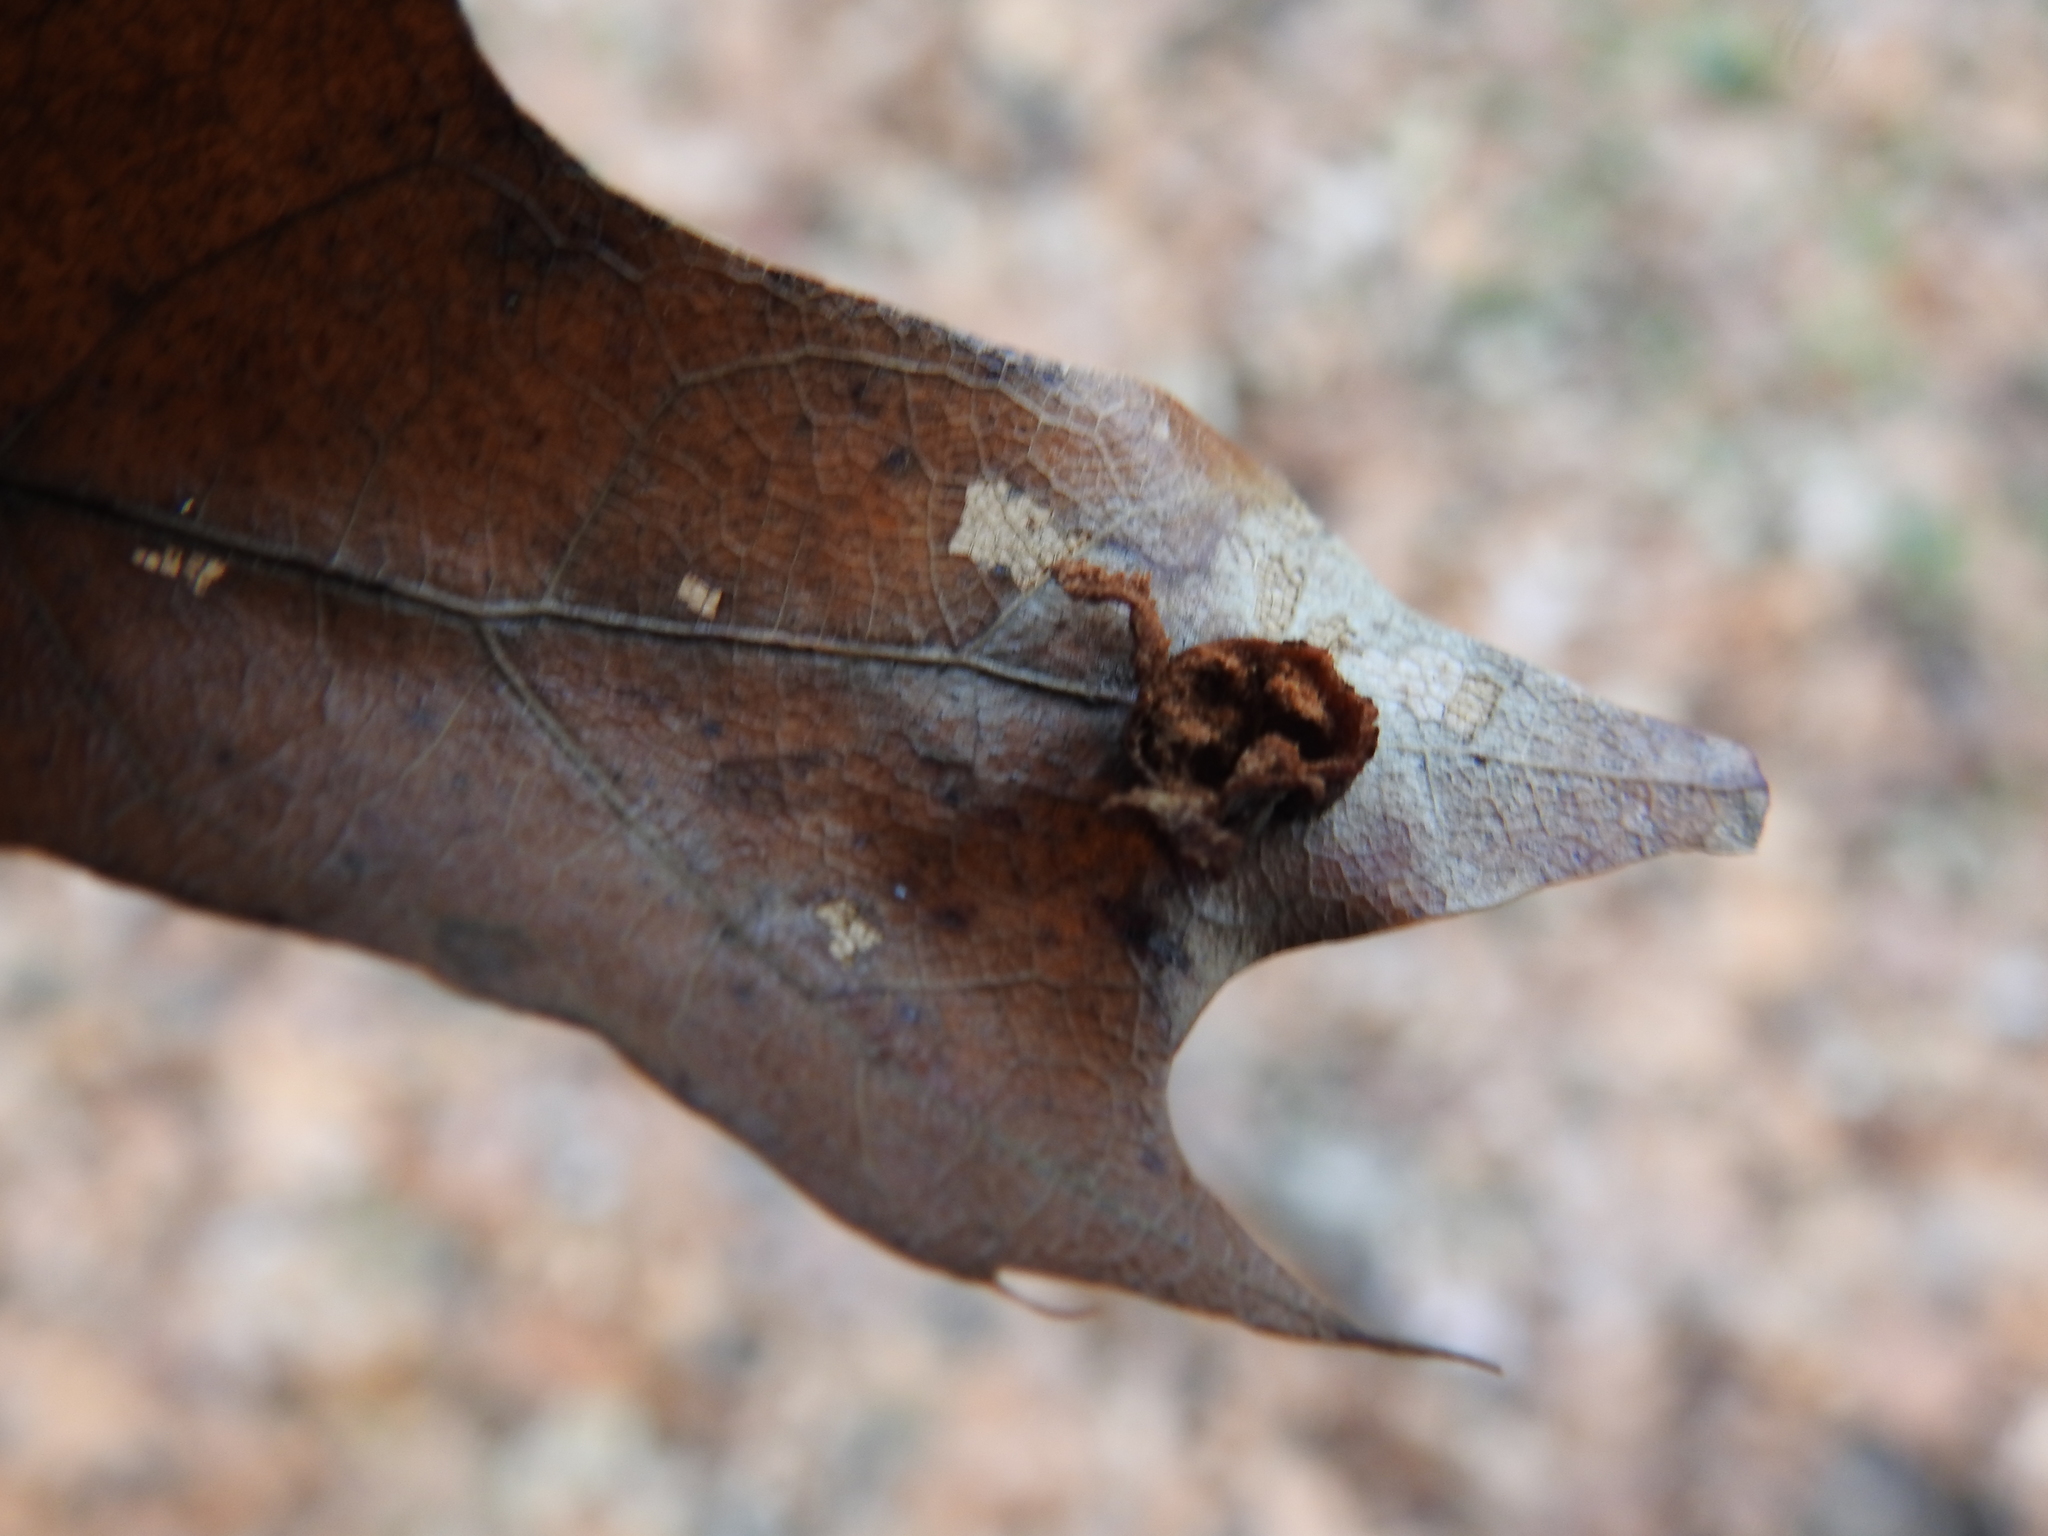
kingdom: Animalia
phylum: Arthropoda
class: Insecta
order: Diptera
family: Cecidomyiidae
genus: Polystepha
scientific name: Polystepha pilulae
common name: Oak leaf gall midge
